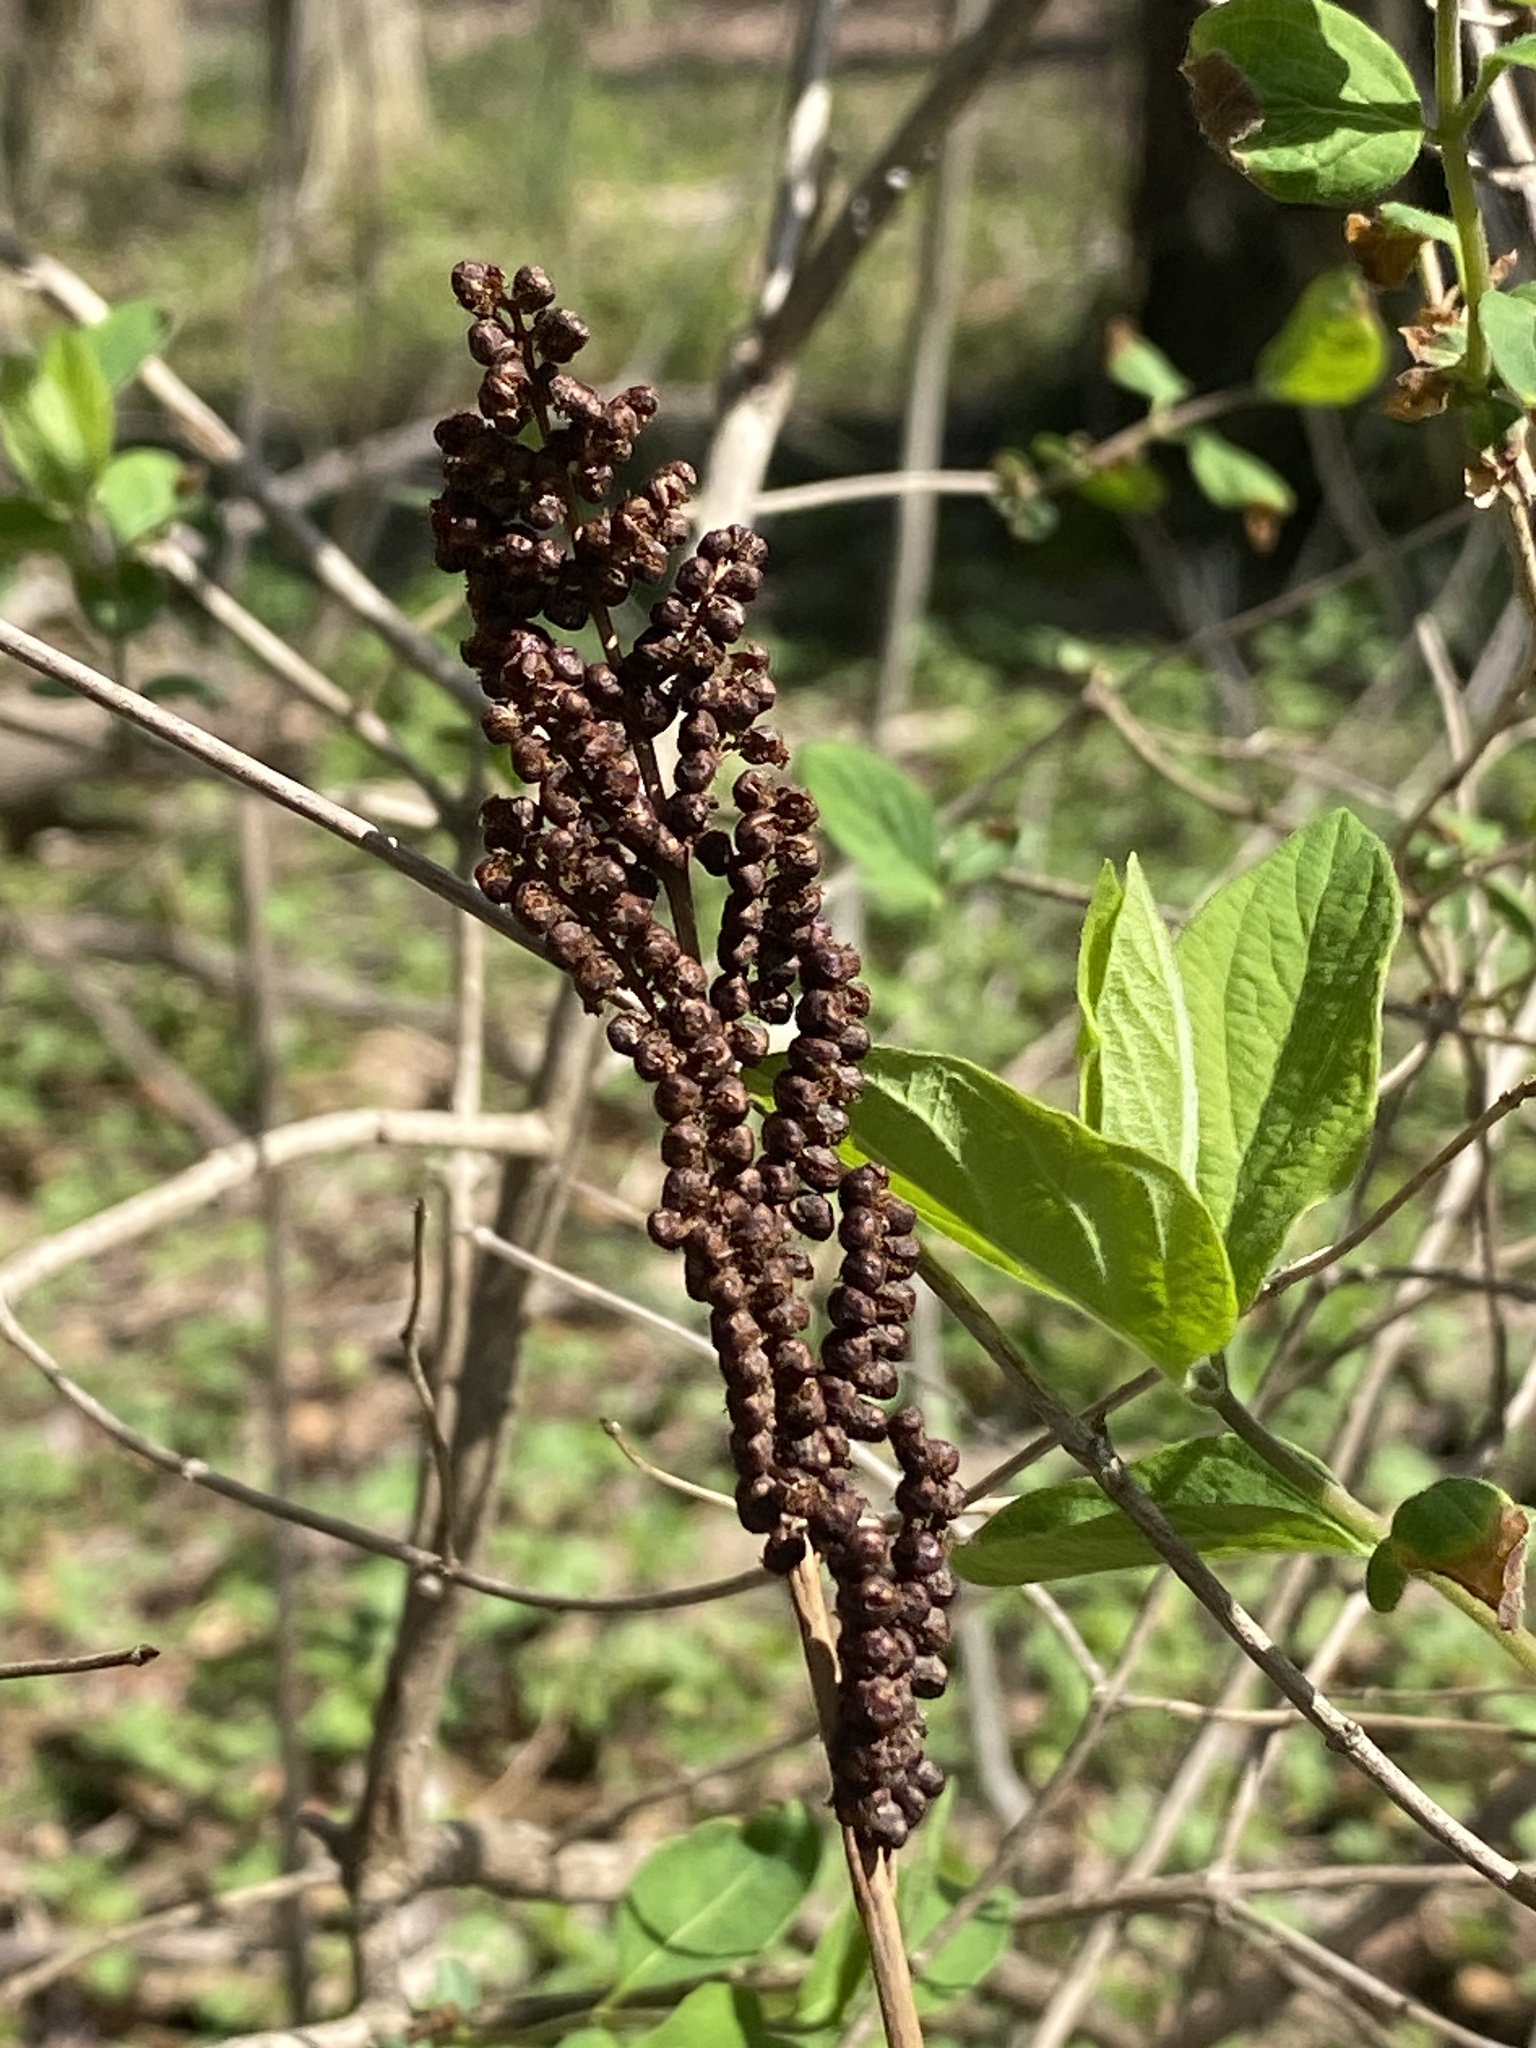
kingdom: Plantae
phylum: Tracheophyta
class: Polypodiopsida
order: Polypodiales
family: Onocleaceae
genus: Onoclea
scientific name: Onoclea sensibilis
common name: Sensitive fern
